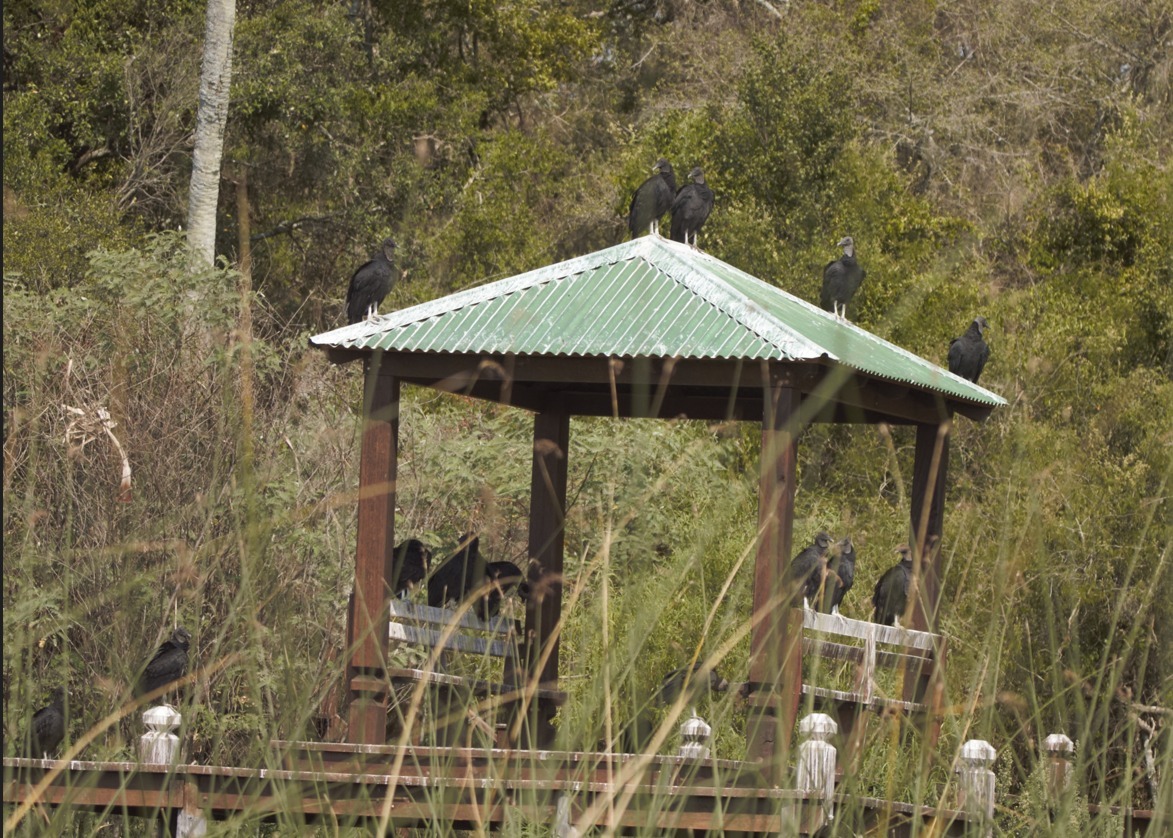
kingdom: Animalia
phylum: Chordata
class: Aves
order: Accipitriformes
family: Cathartidae
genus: Coragyps
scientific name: Coragyps atratus
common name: Black vulture
